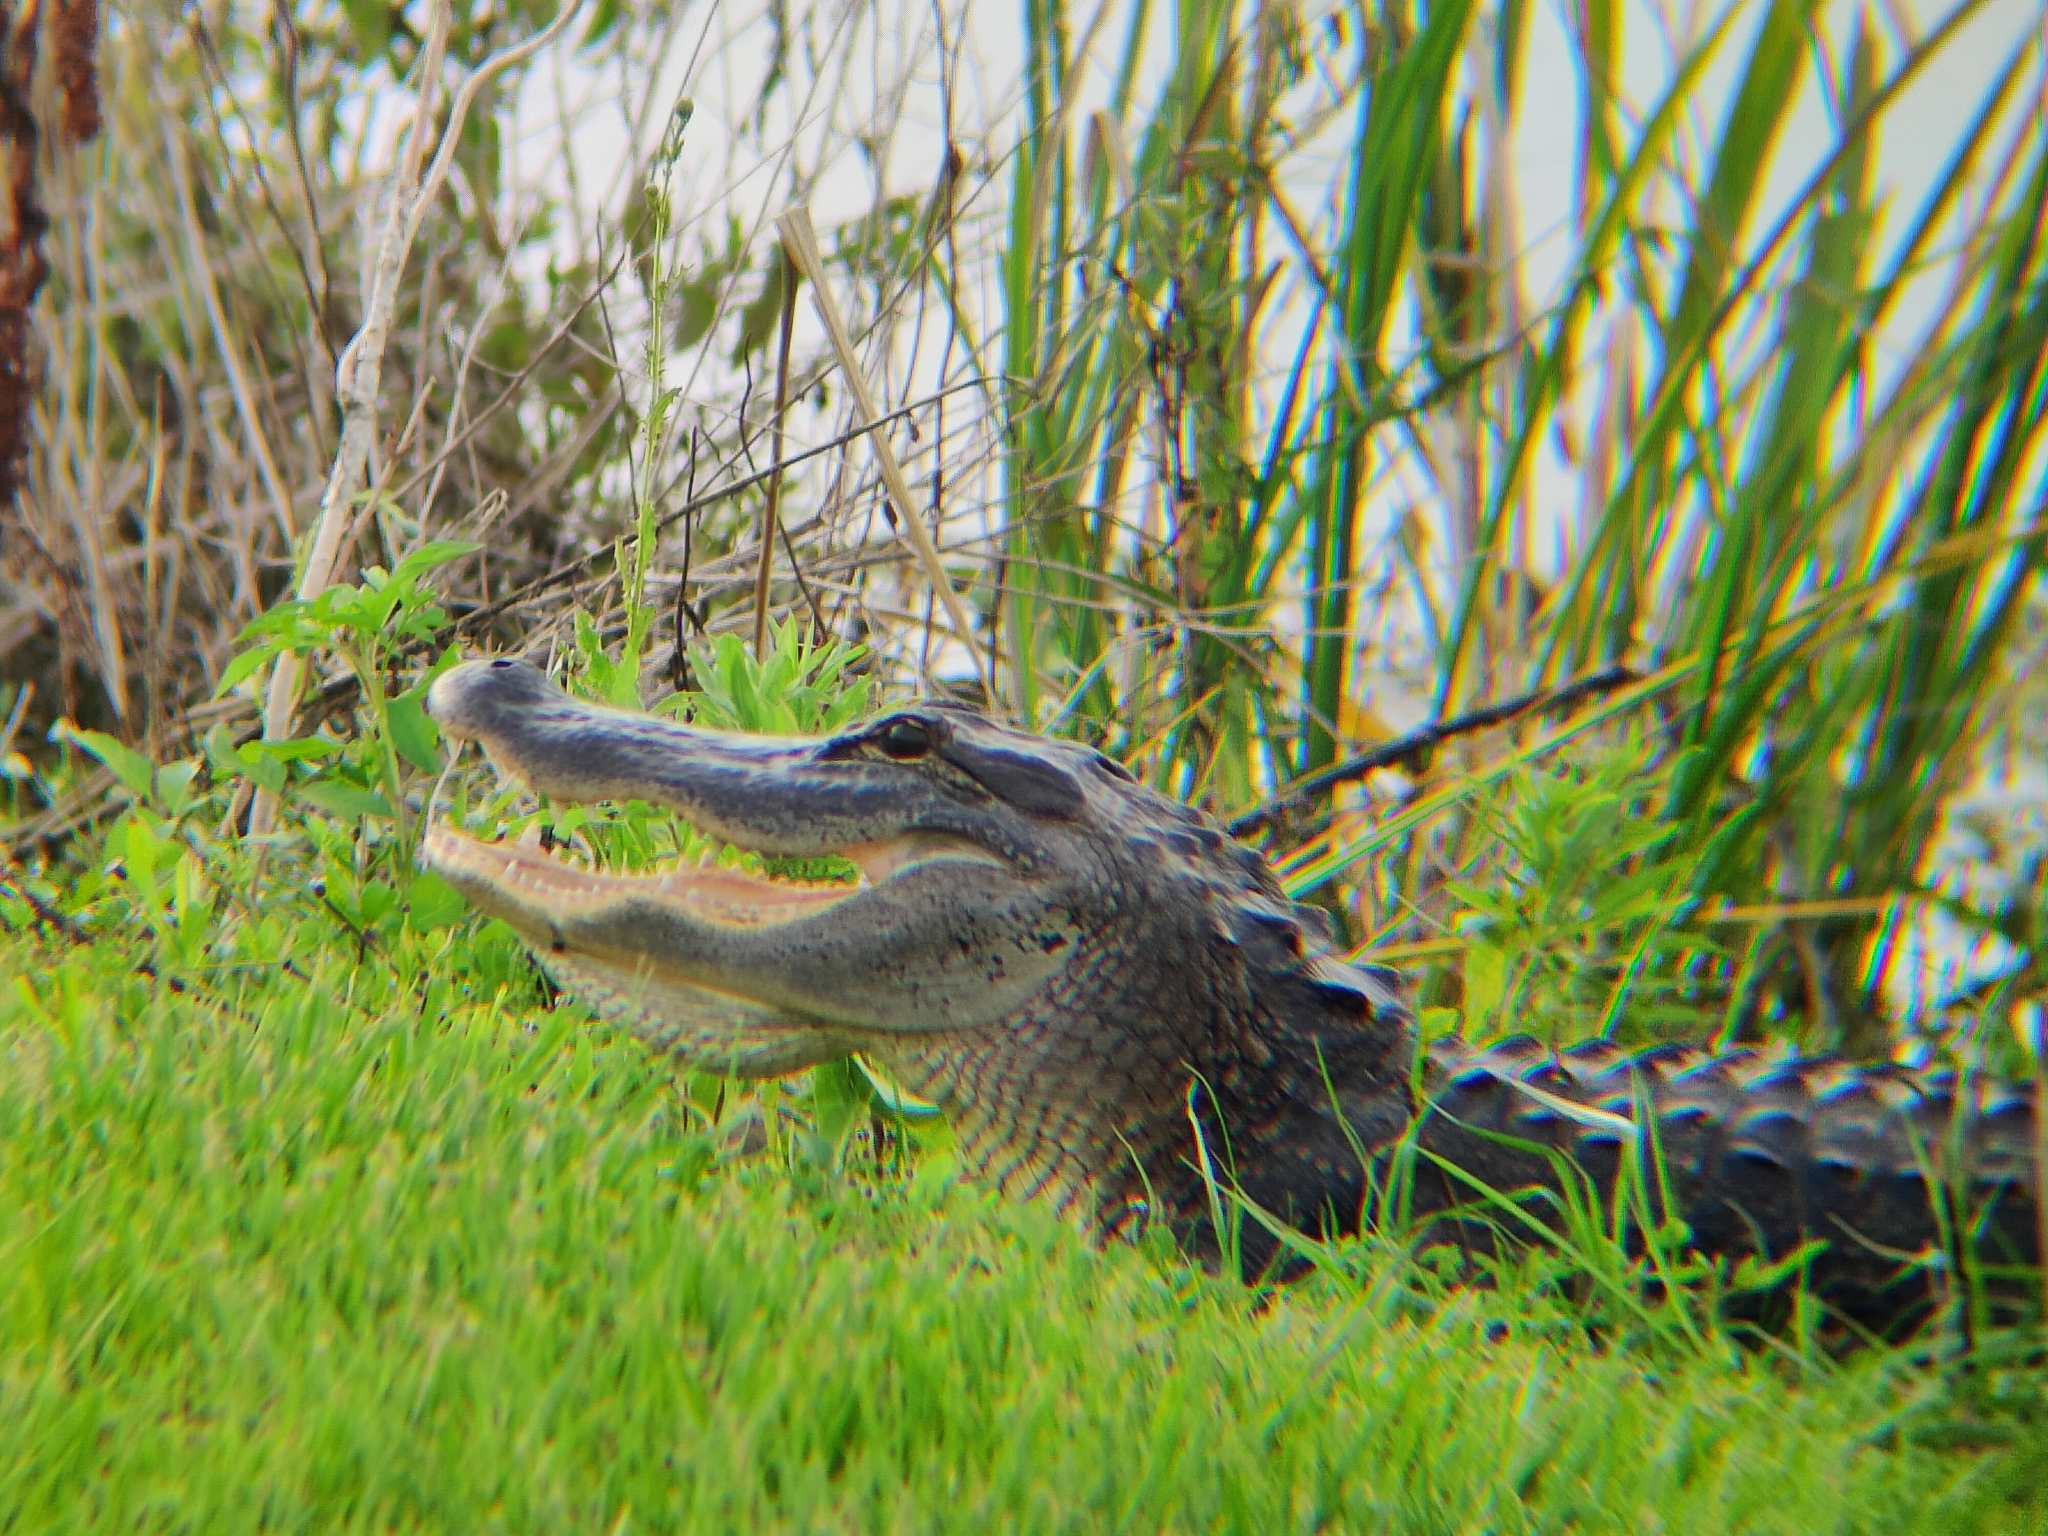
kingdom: Animalia
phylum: Chordata
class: Crocodylia
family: Alligatoridae
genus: Alligator
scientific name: Alligator mississippiensis
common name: American alligator
